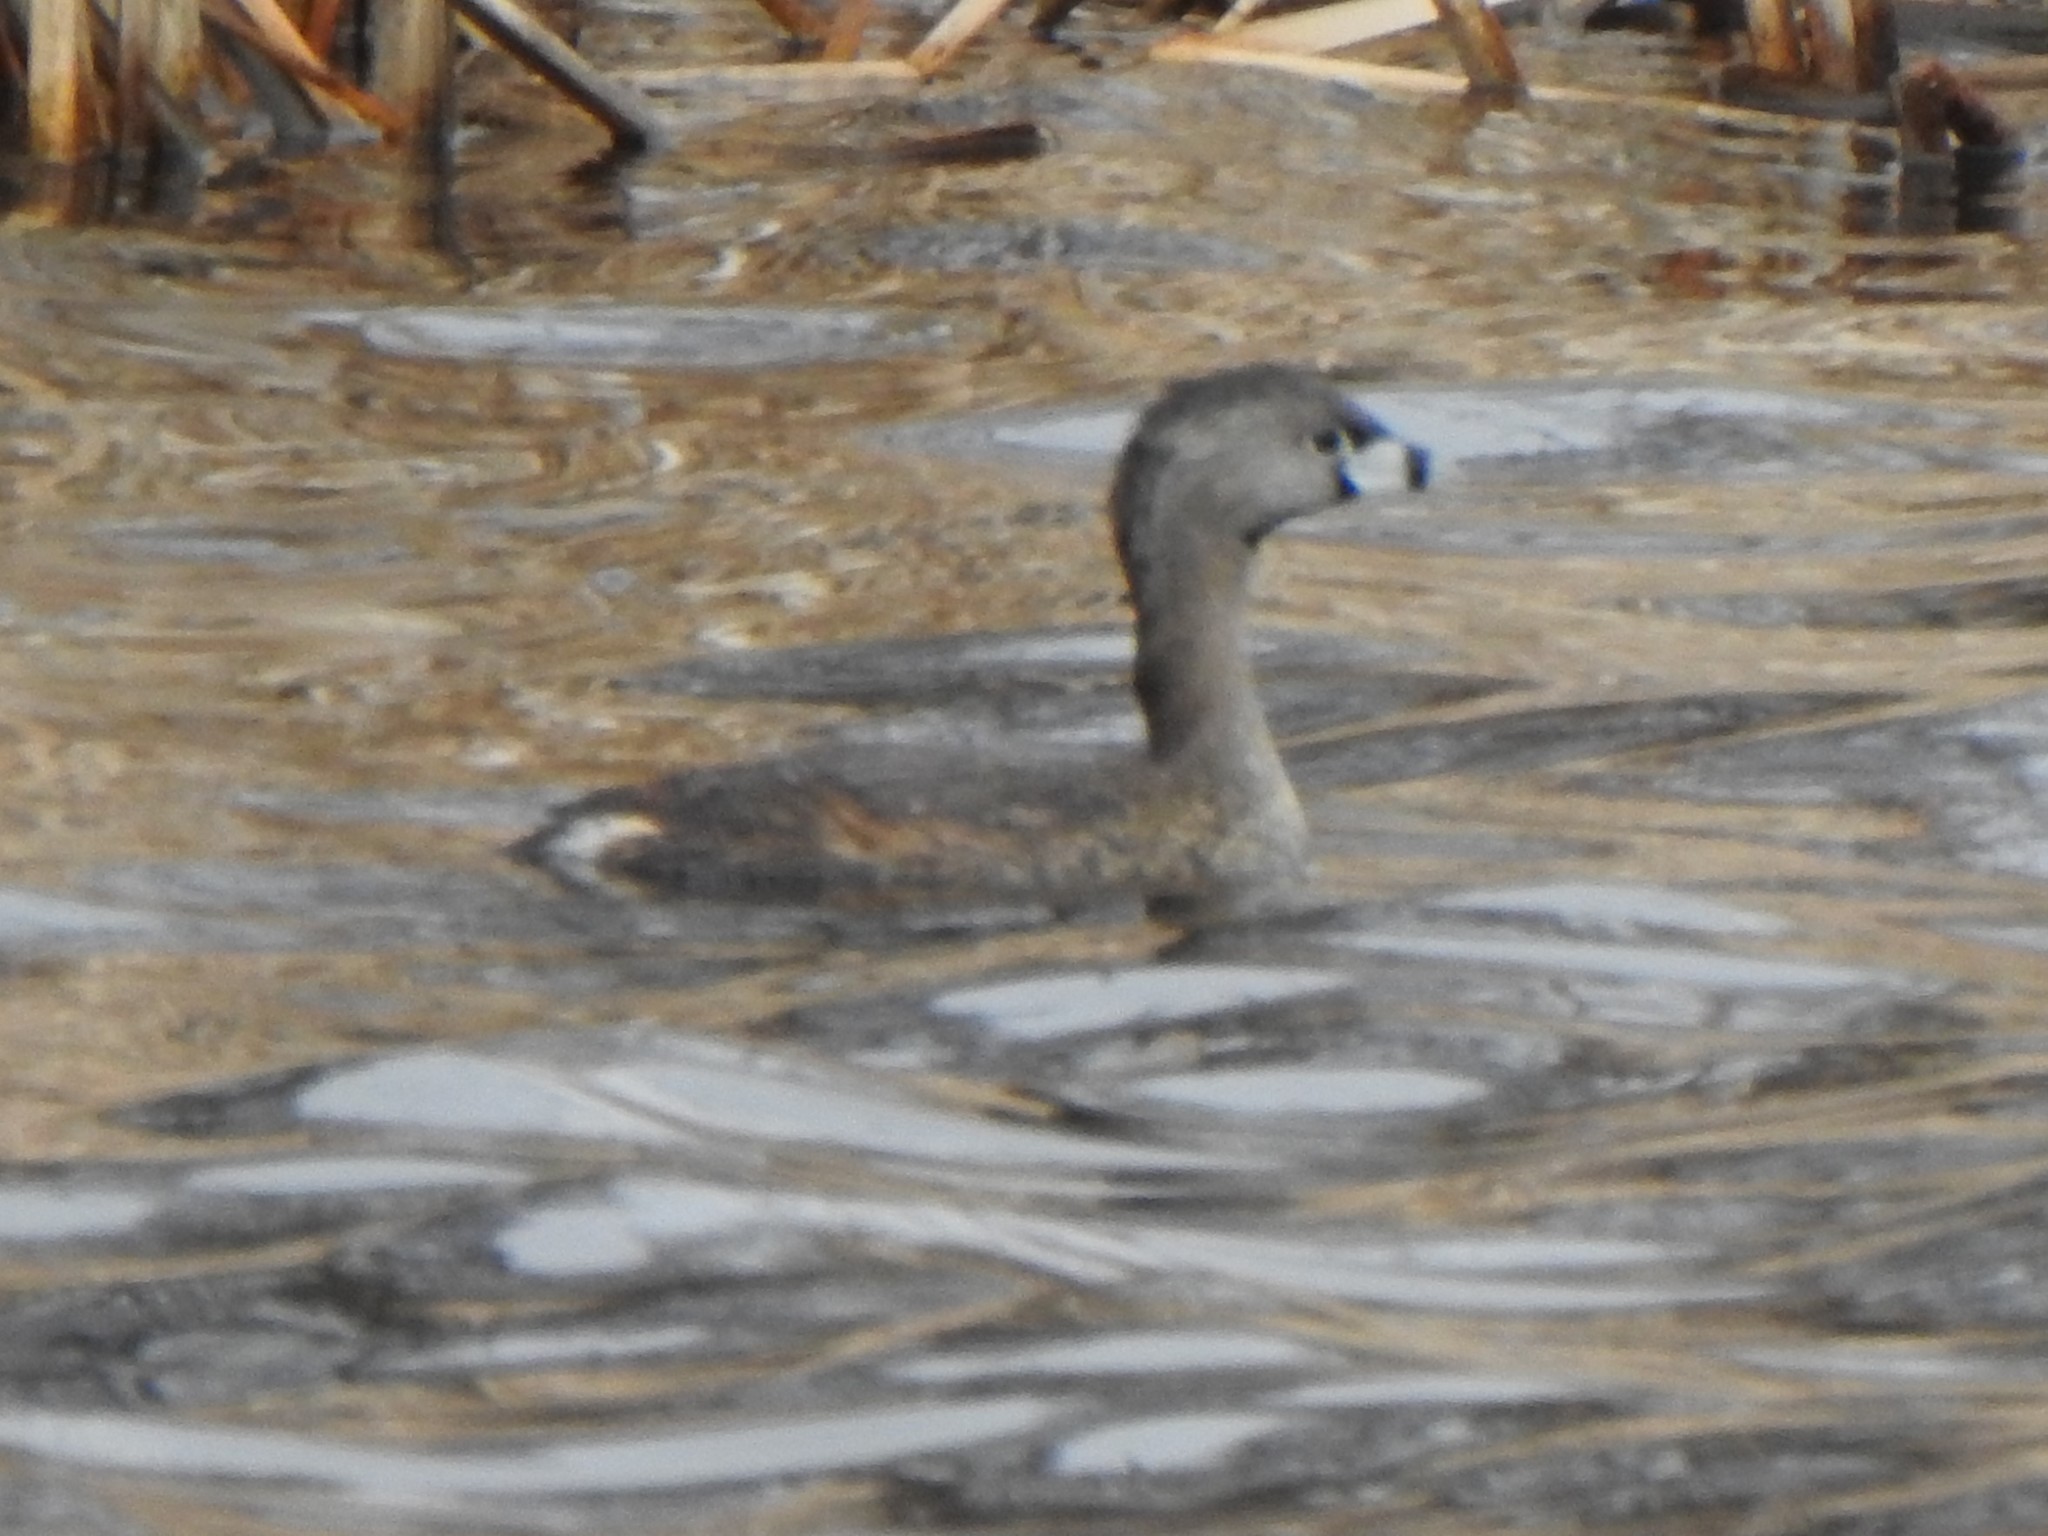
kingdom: Animalia
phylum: Chordata
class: Aves
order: Podicipediformes
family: Podicipedidae
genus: Podilymbus
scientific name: Podilymbus podiceps
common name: Pied-billed grebe
